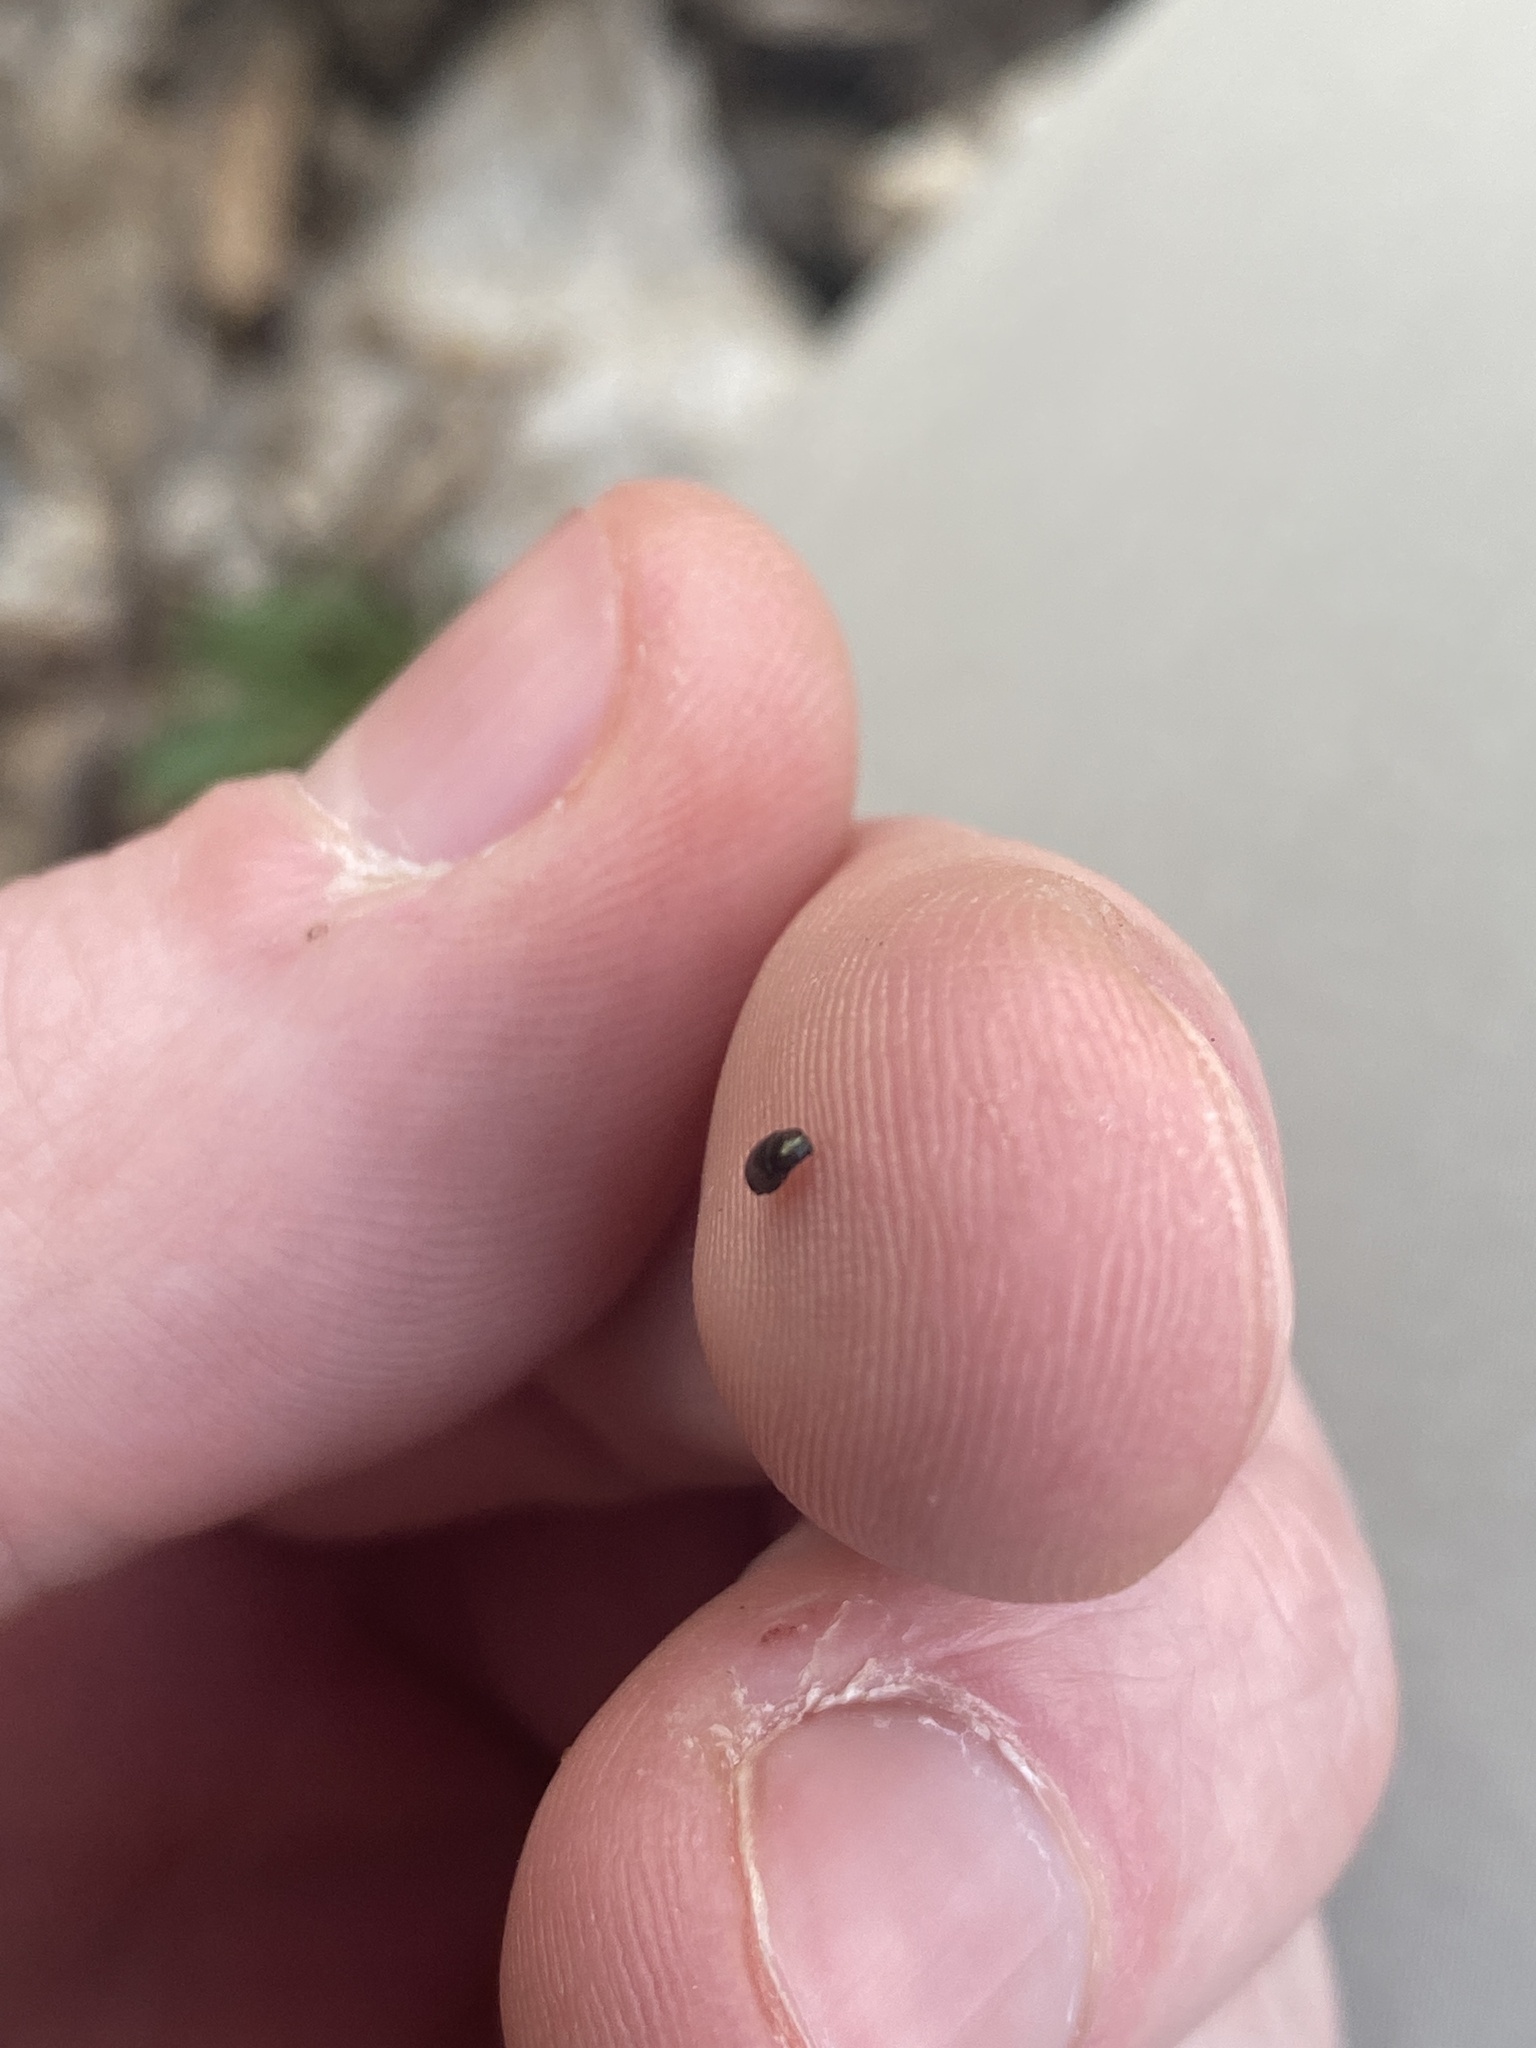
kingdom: Plantae
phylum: Tracheophyta
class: Magnoliopsida
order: Brassicales
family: Brassicaceae
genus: Cardamine
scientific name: Cardamine concatenata
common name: Cut-leaf toothcup
